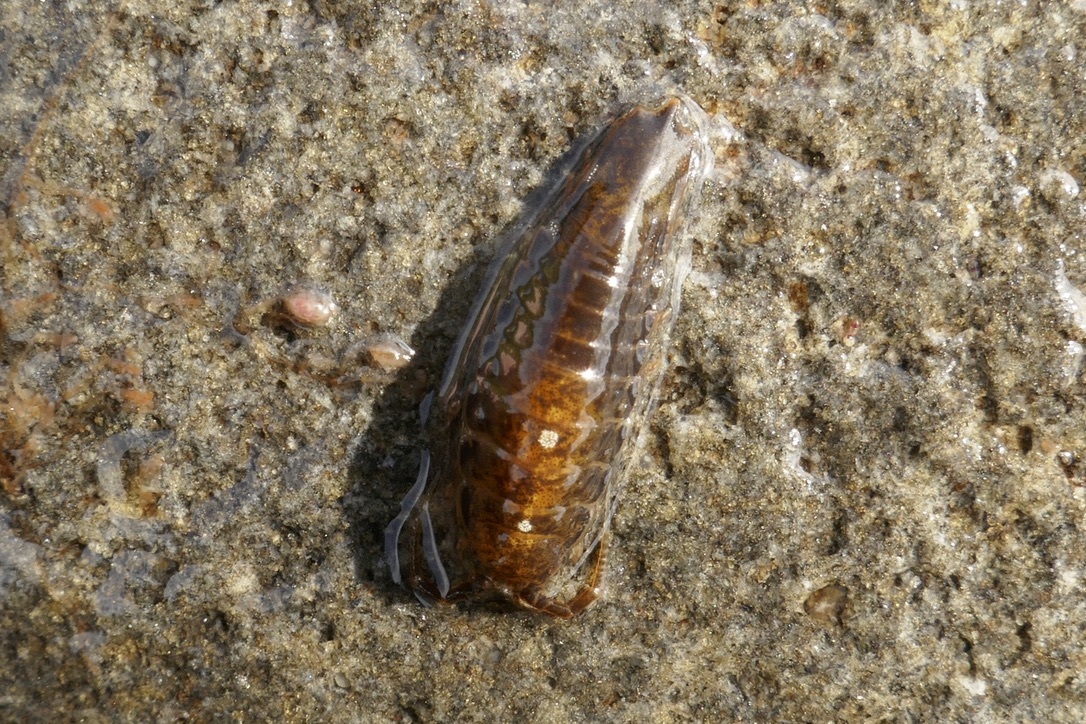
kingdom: Animalia
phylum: Arthropoda
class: Malacostraca
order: Isopoda
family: Idoteidae
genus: Idotea
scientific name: Idotea balthica
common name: Baltic isopod
